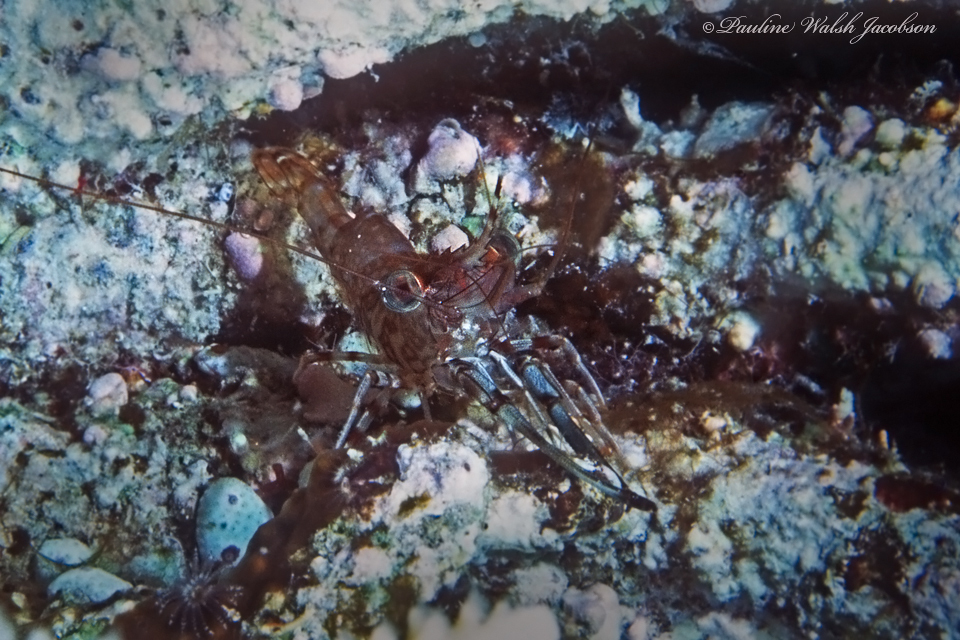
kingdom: Animalia
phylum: Arthropoda
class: Malacostraca
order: Decapoda
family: Rhynchocinetidae
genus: Cinetorhynchus
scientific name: Cinetorhynchus hendersoni
